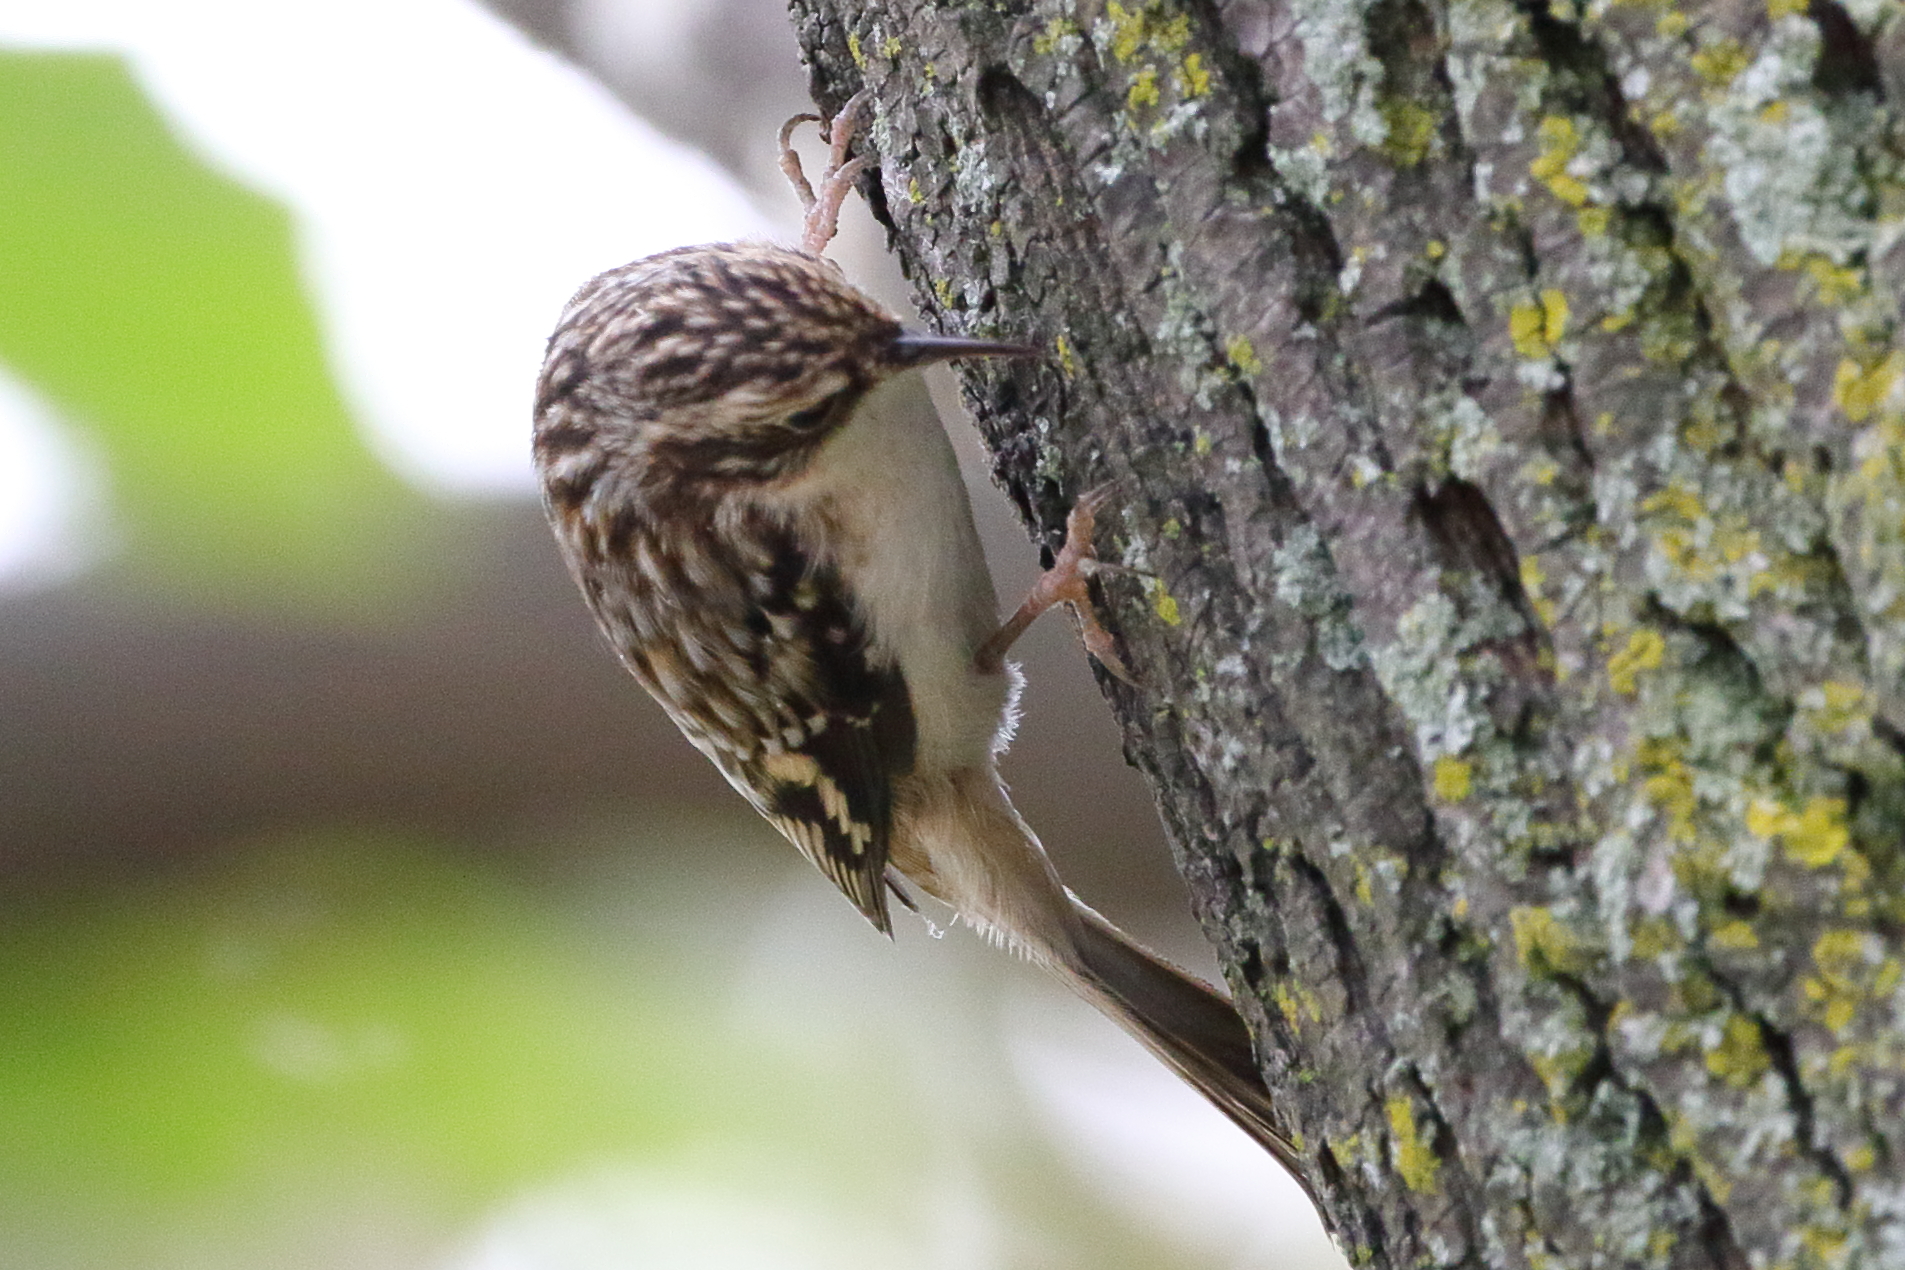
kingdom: Animalia
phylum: Chordata
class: Aves
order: Passeriformes
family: Certhiidae
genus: Certhia
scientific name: Certhia americana
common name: Brown creeper
